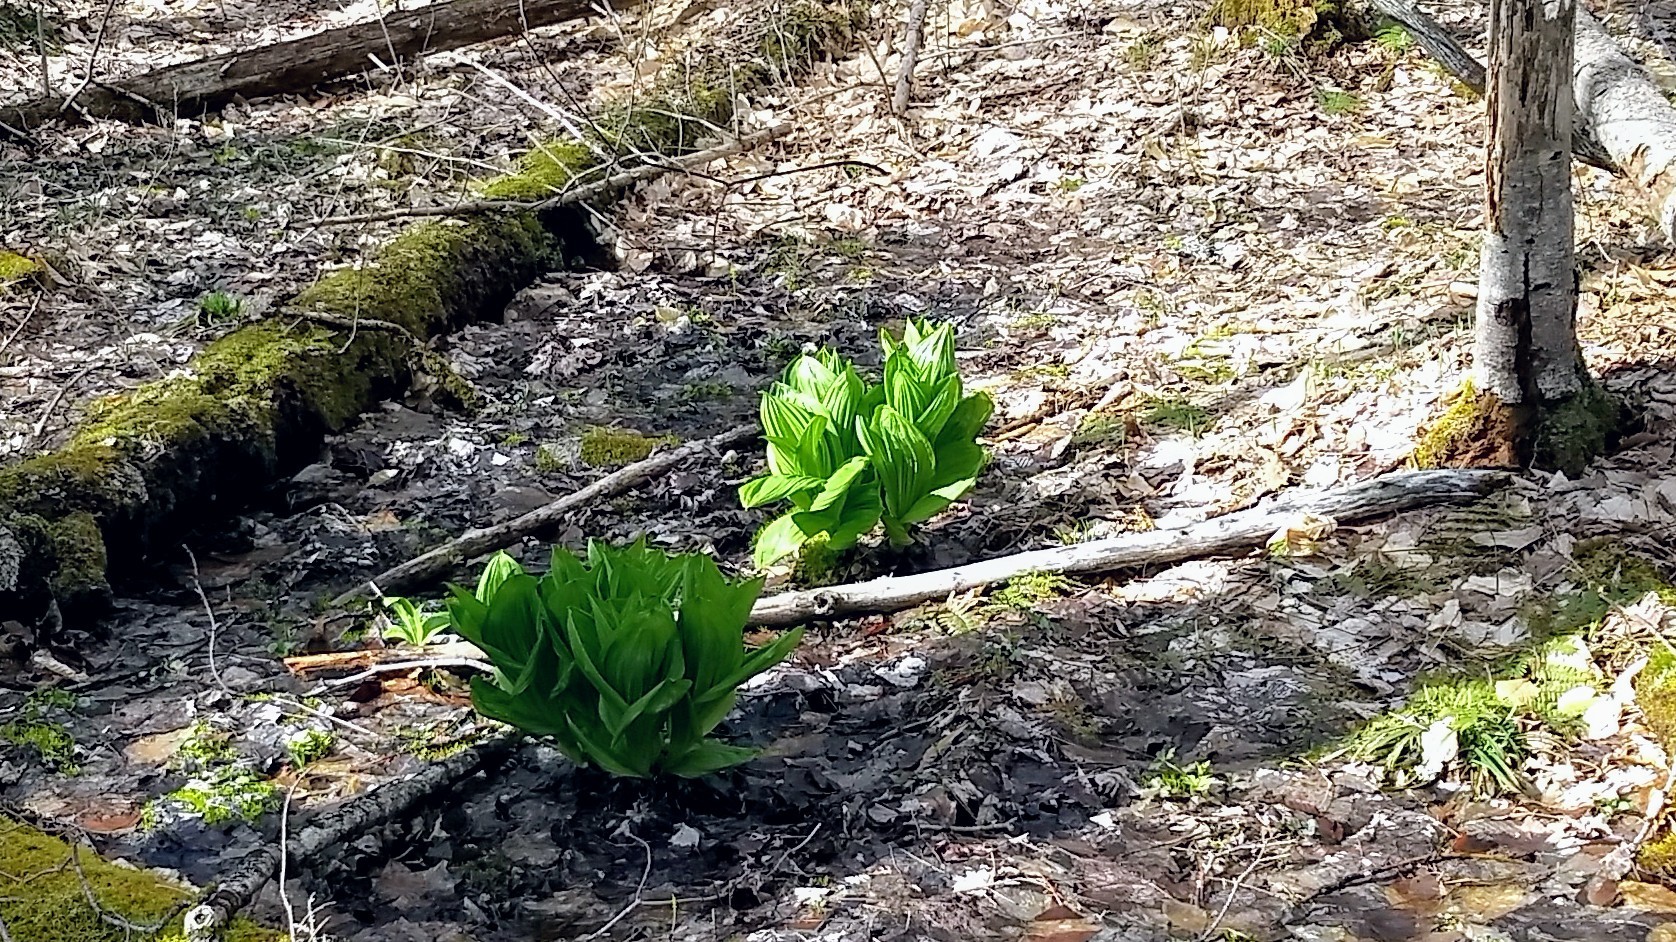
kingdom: Plantae
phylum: Tracheophyta
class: Liliopsida
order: Liliales
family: Melanthiaceae
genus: Veratrum
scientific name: Veratrum viride
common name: American false hellebore
